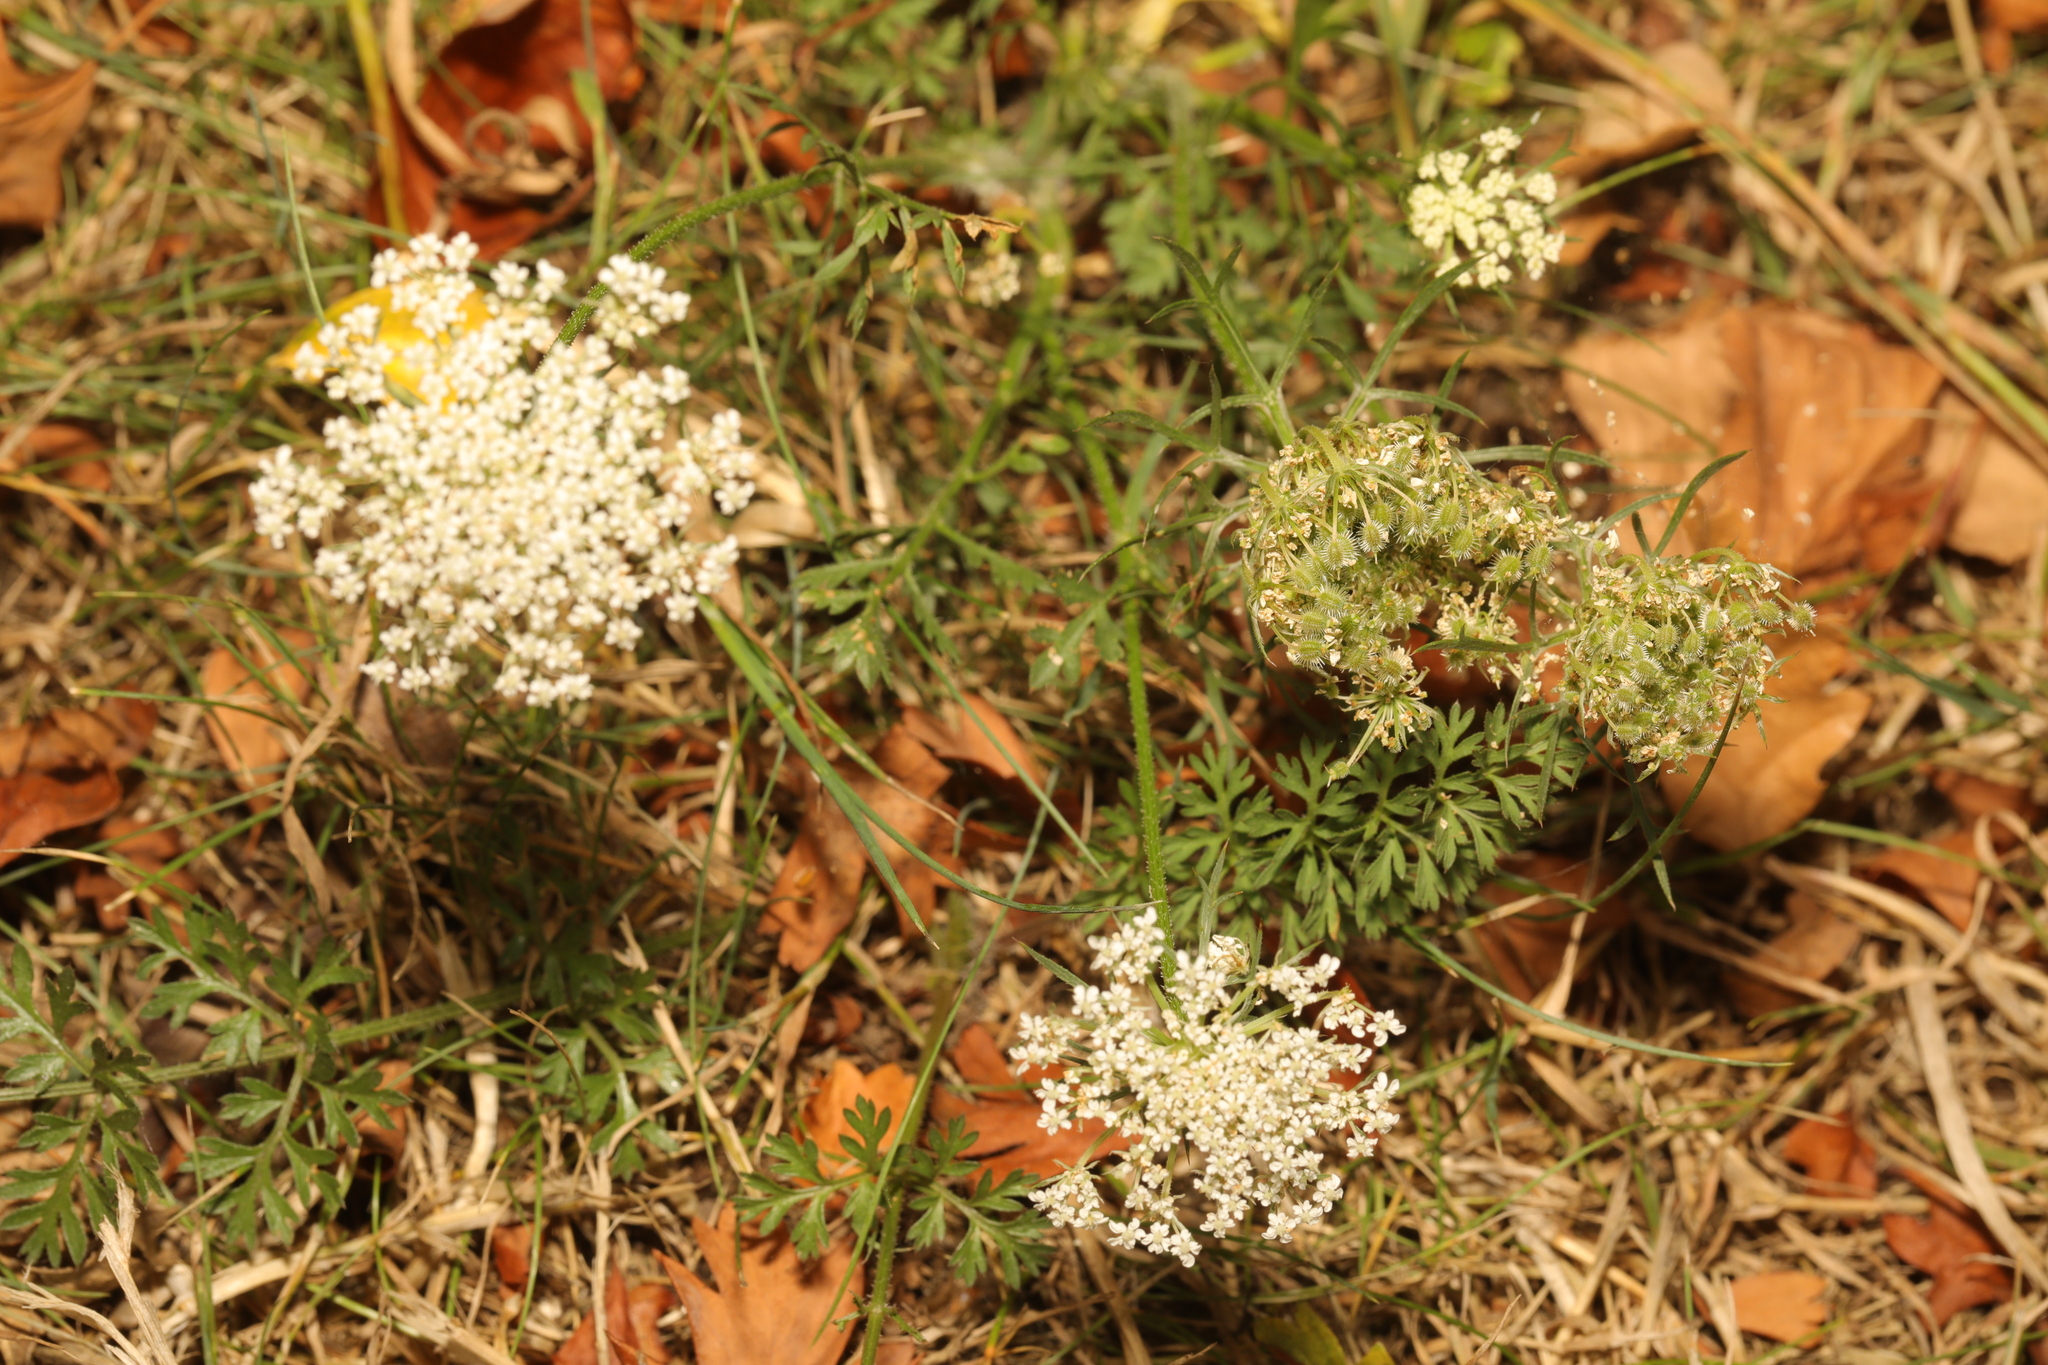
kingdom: Plantae
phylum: Tracheophyta
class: Magnoliopsida
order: Apiales
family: Apiaceae
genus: Daucus
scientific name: Daucus carota
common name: Wild carrot
